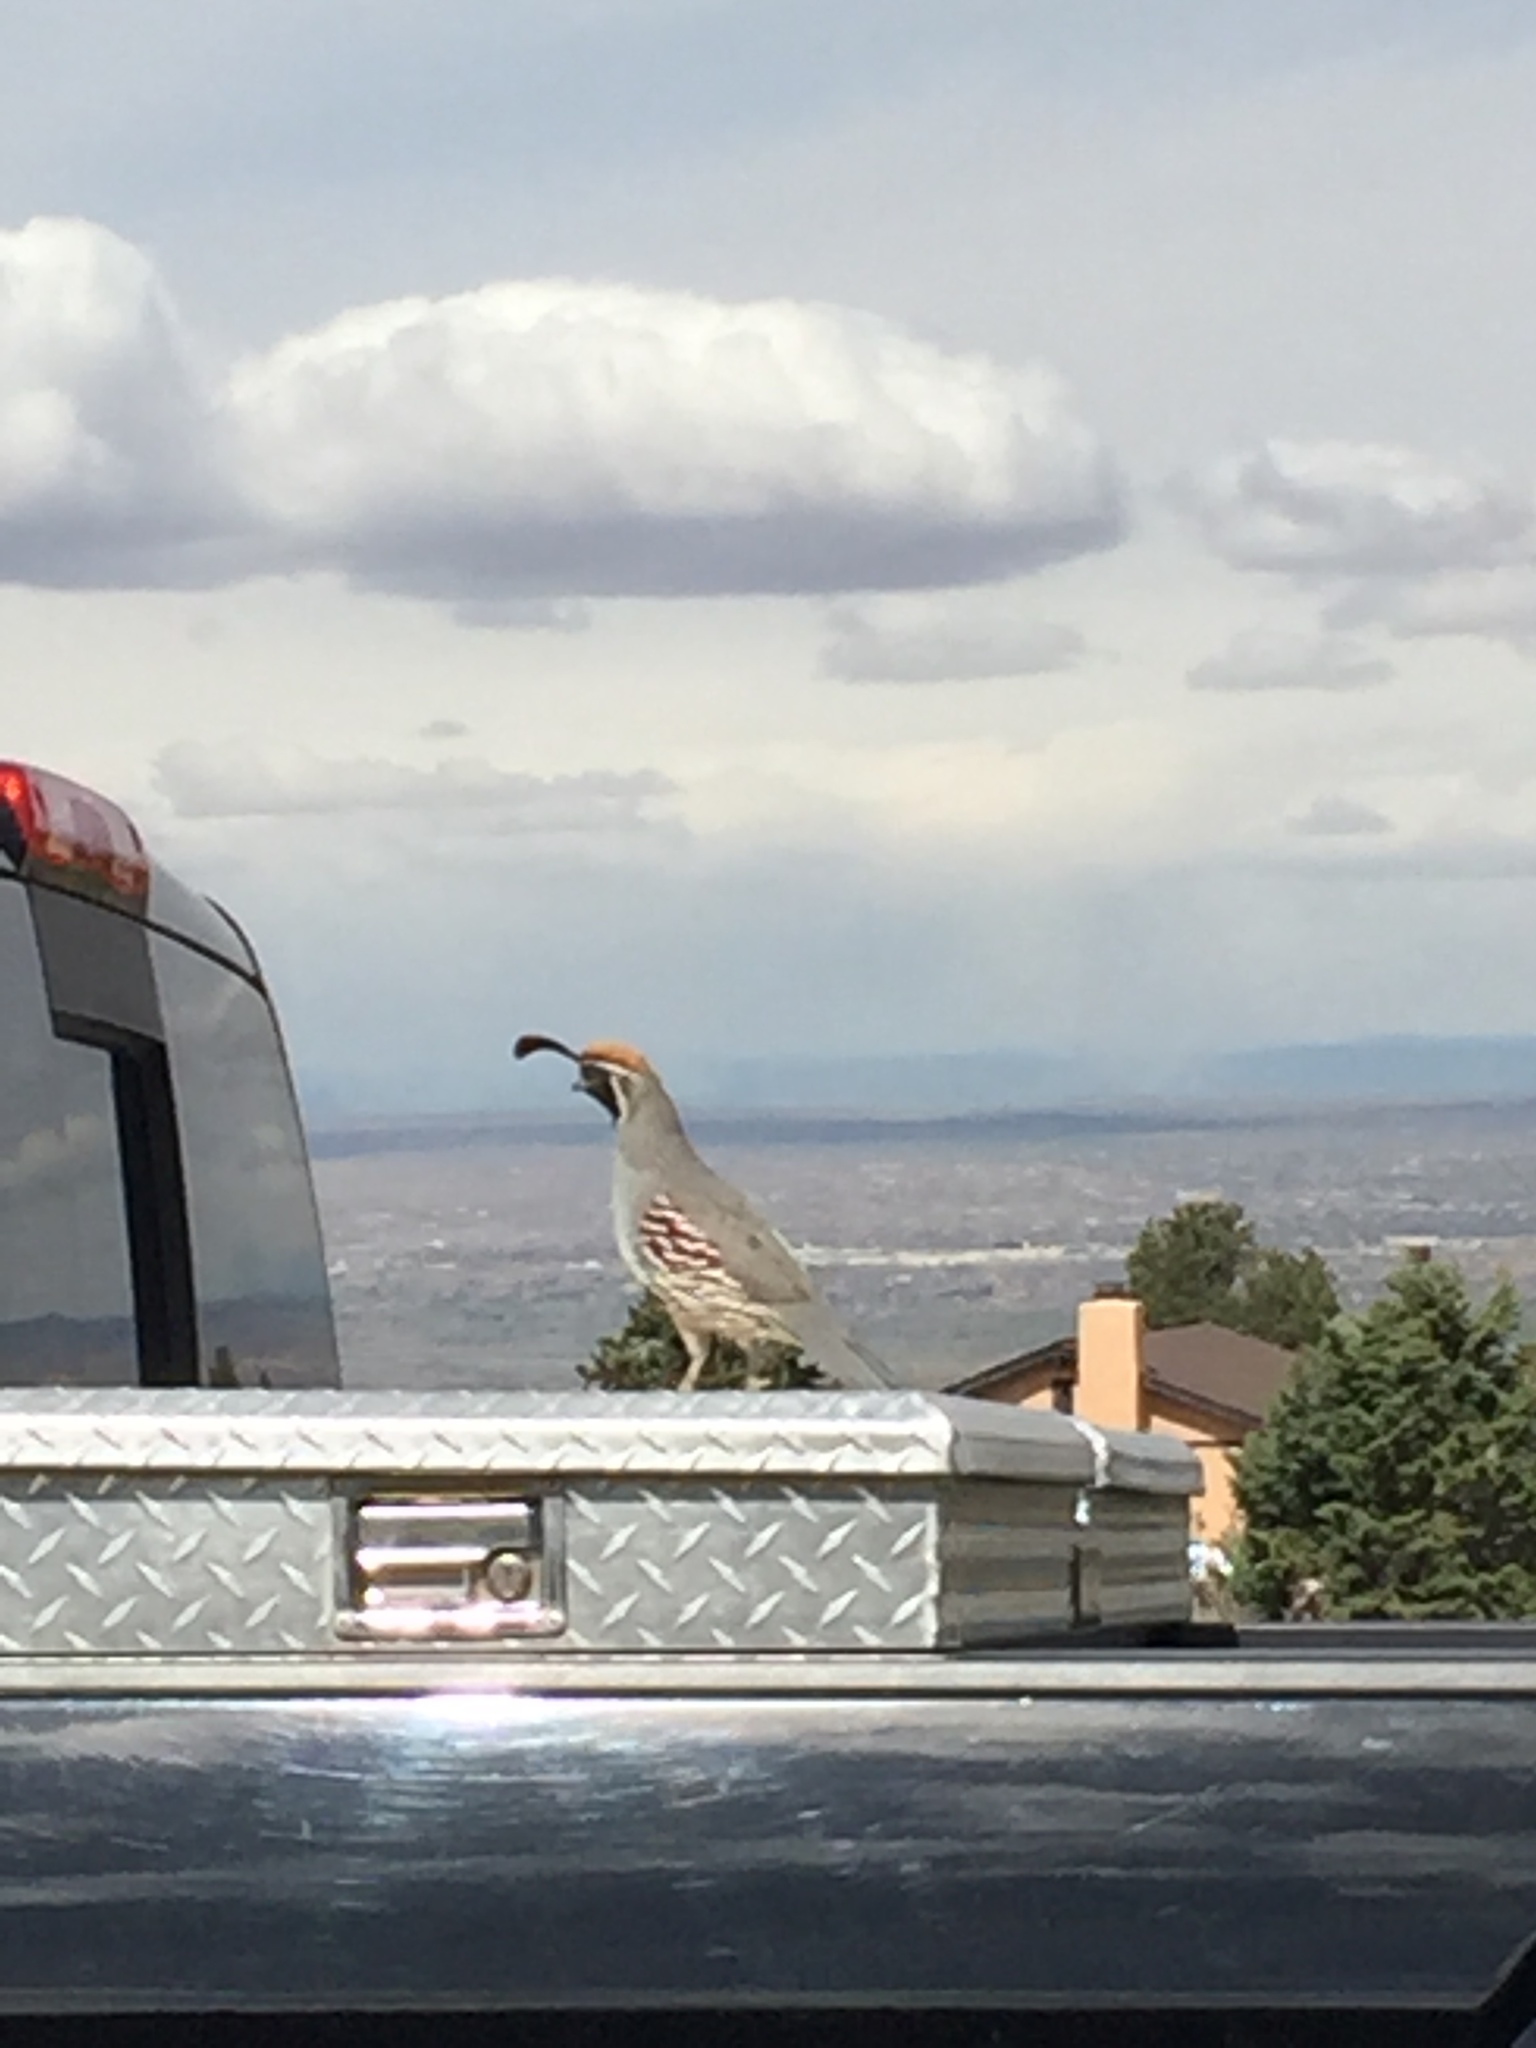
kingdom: Animalia
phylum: Chordata
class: Aves
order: Galliformes
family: Odontophoridae
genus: Callipepla
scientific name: Callipepla gambelii
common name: Gambel's quail
